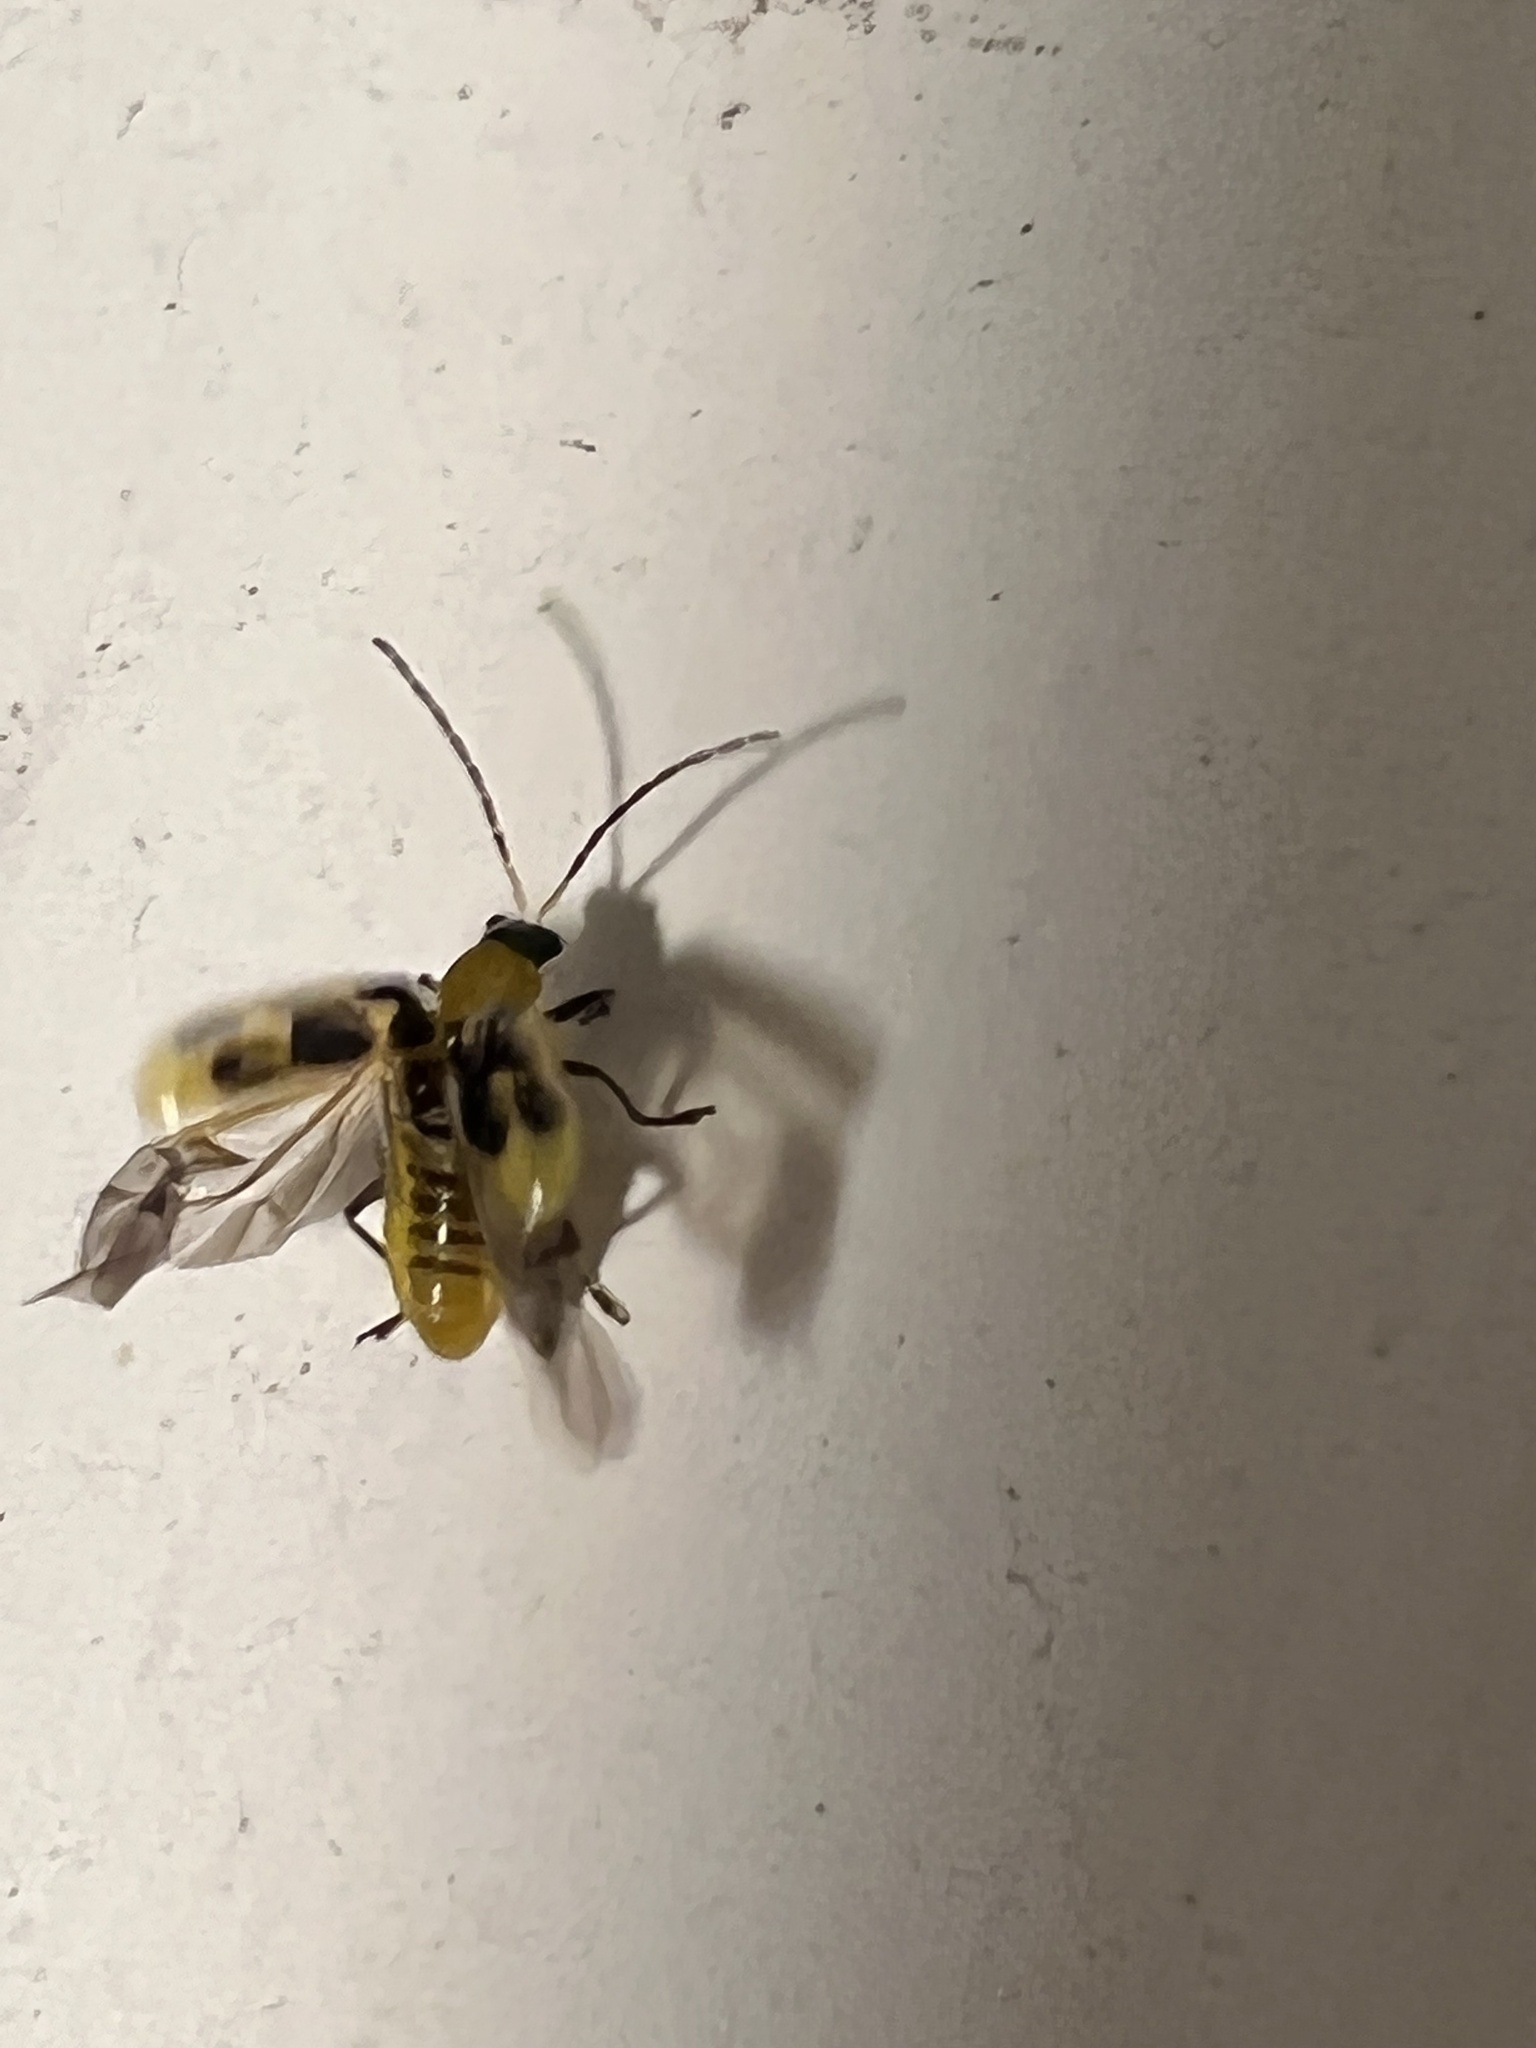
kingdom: Animalia
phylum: Arthropoda
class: Insecta
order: Coleoptera
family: Chrysomelidae
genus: Diabrotica
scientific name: Diabrotica undecimpunctata
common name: Spotted cucumber beetle
